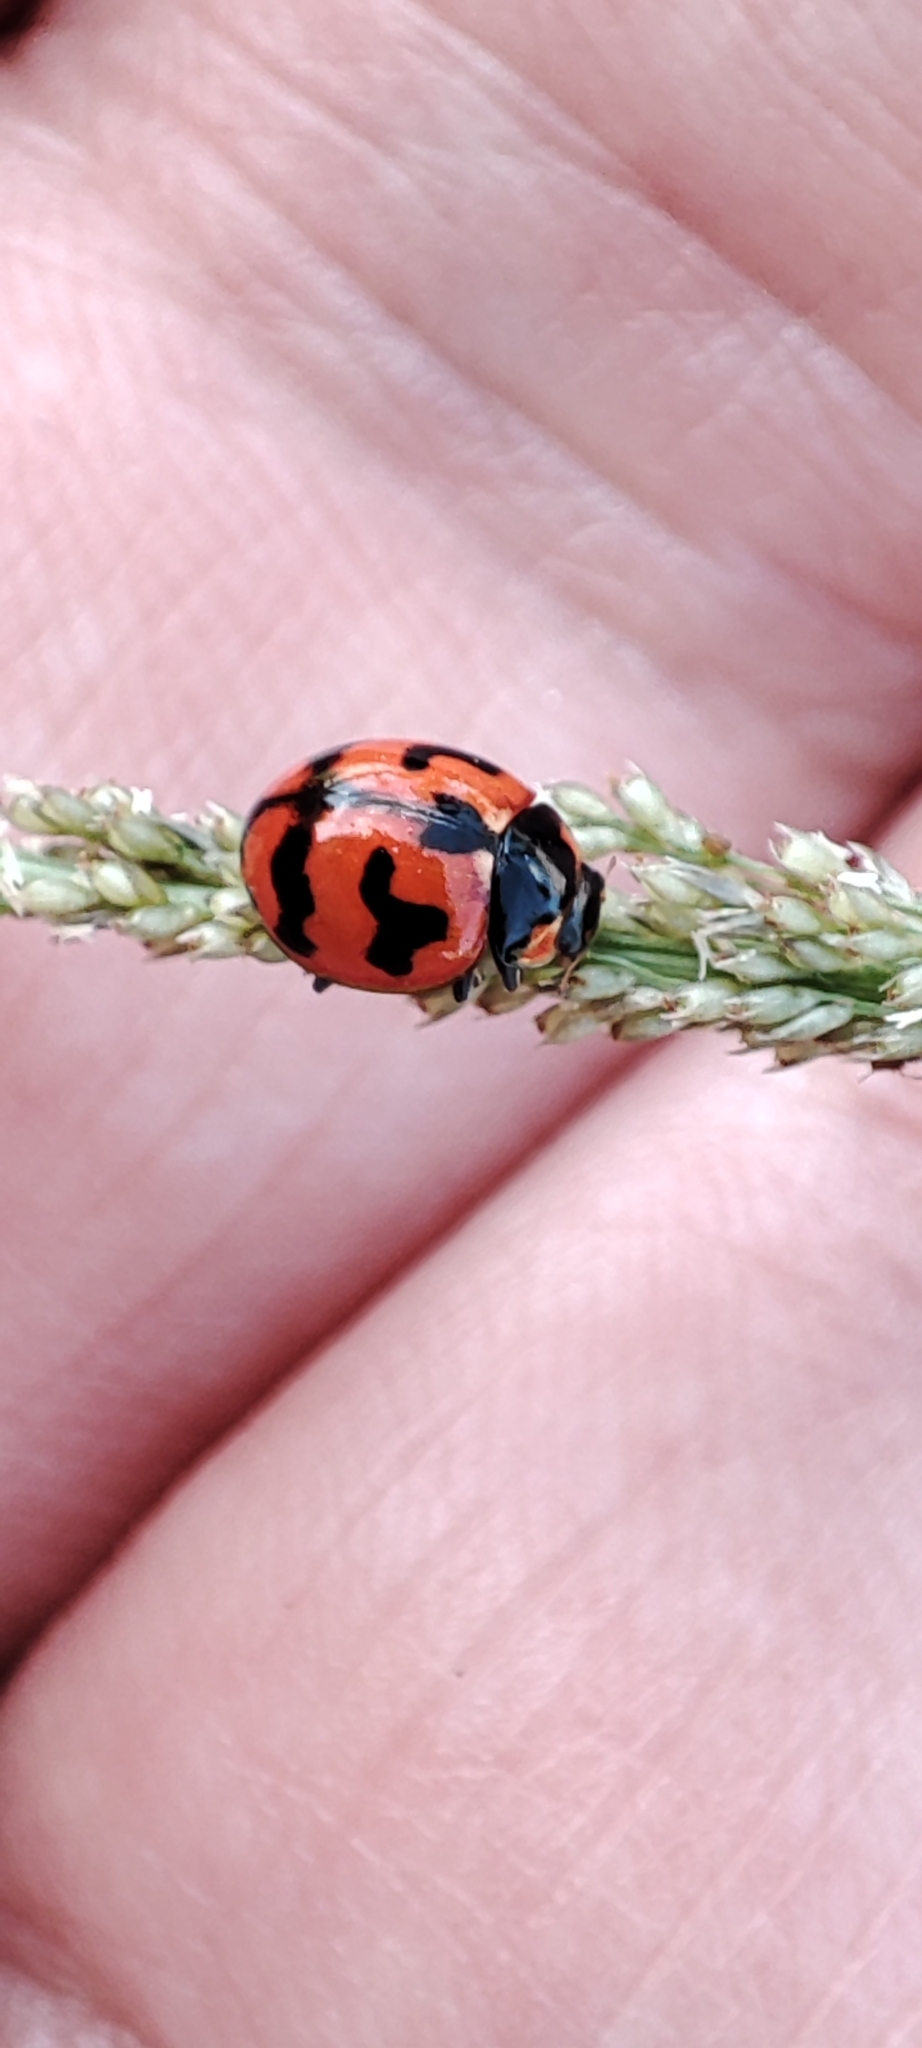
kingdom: Animalia
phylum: Arthropoda
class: Insecta
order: Coleoptera
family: Coccinellidae
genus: Coccinella
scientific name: Coccinella transversalis
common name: Transverse lady beetle
